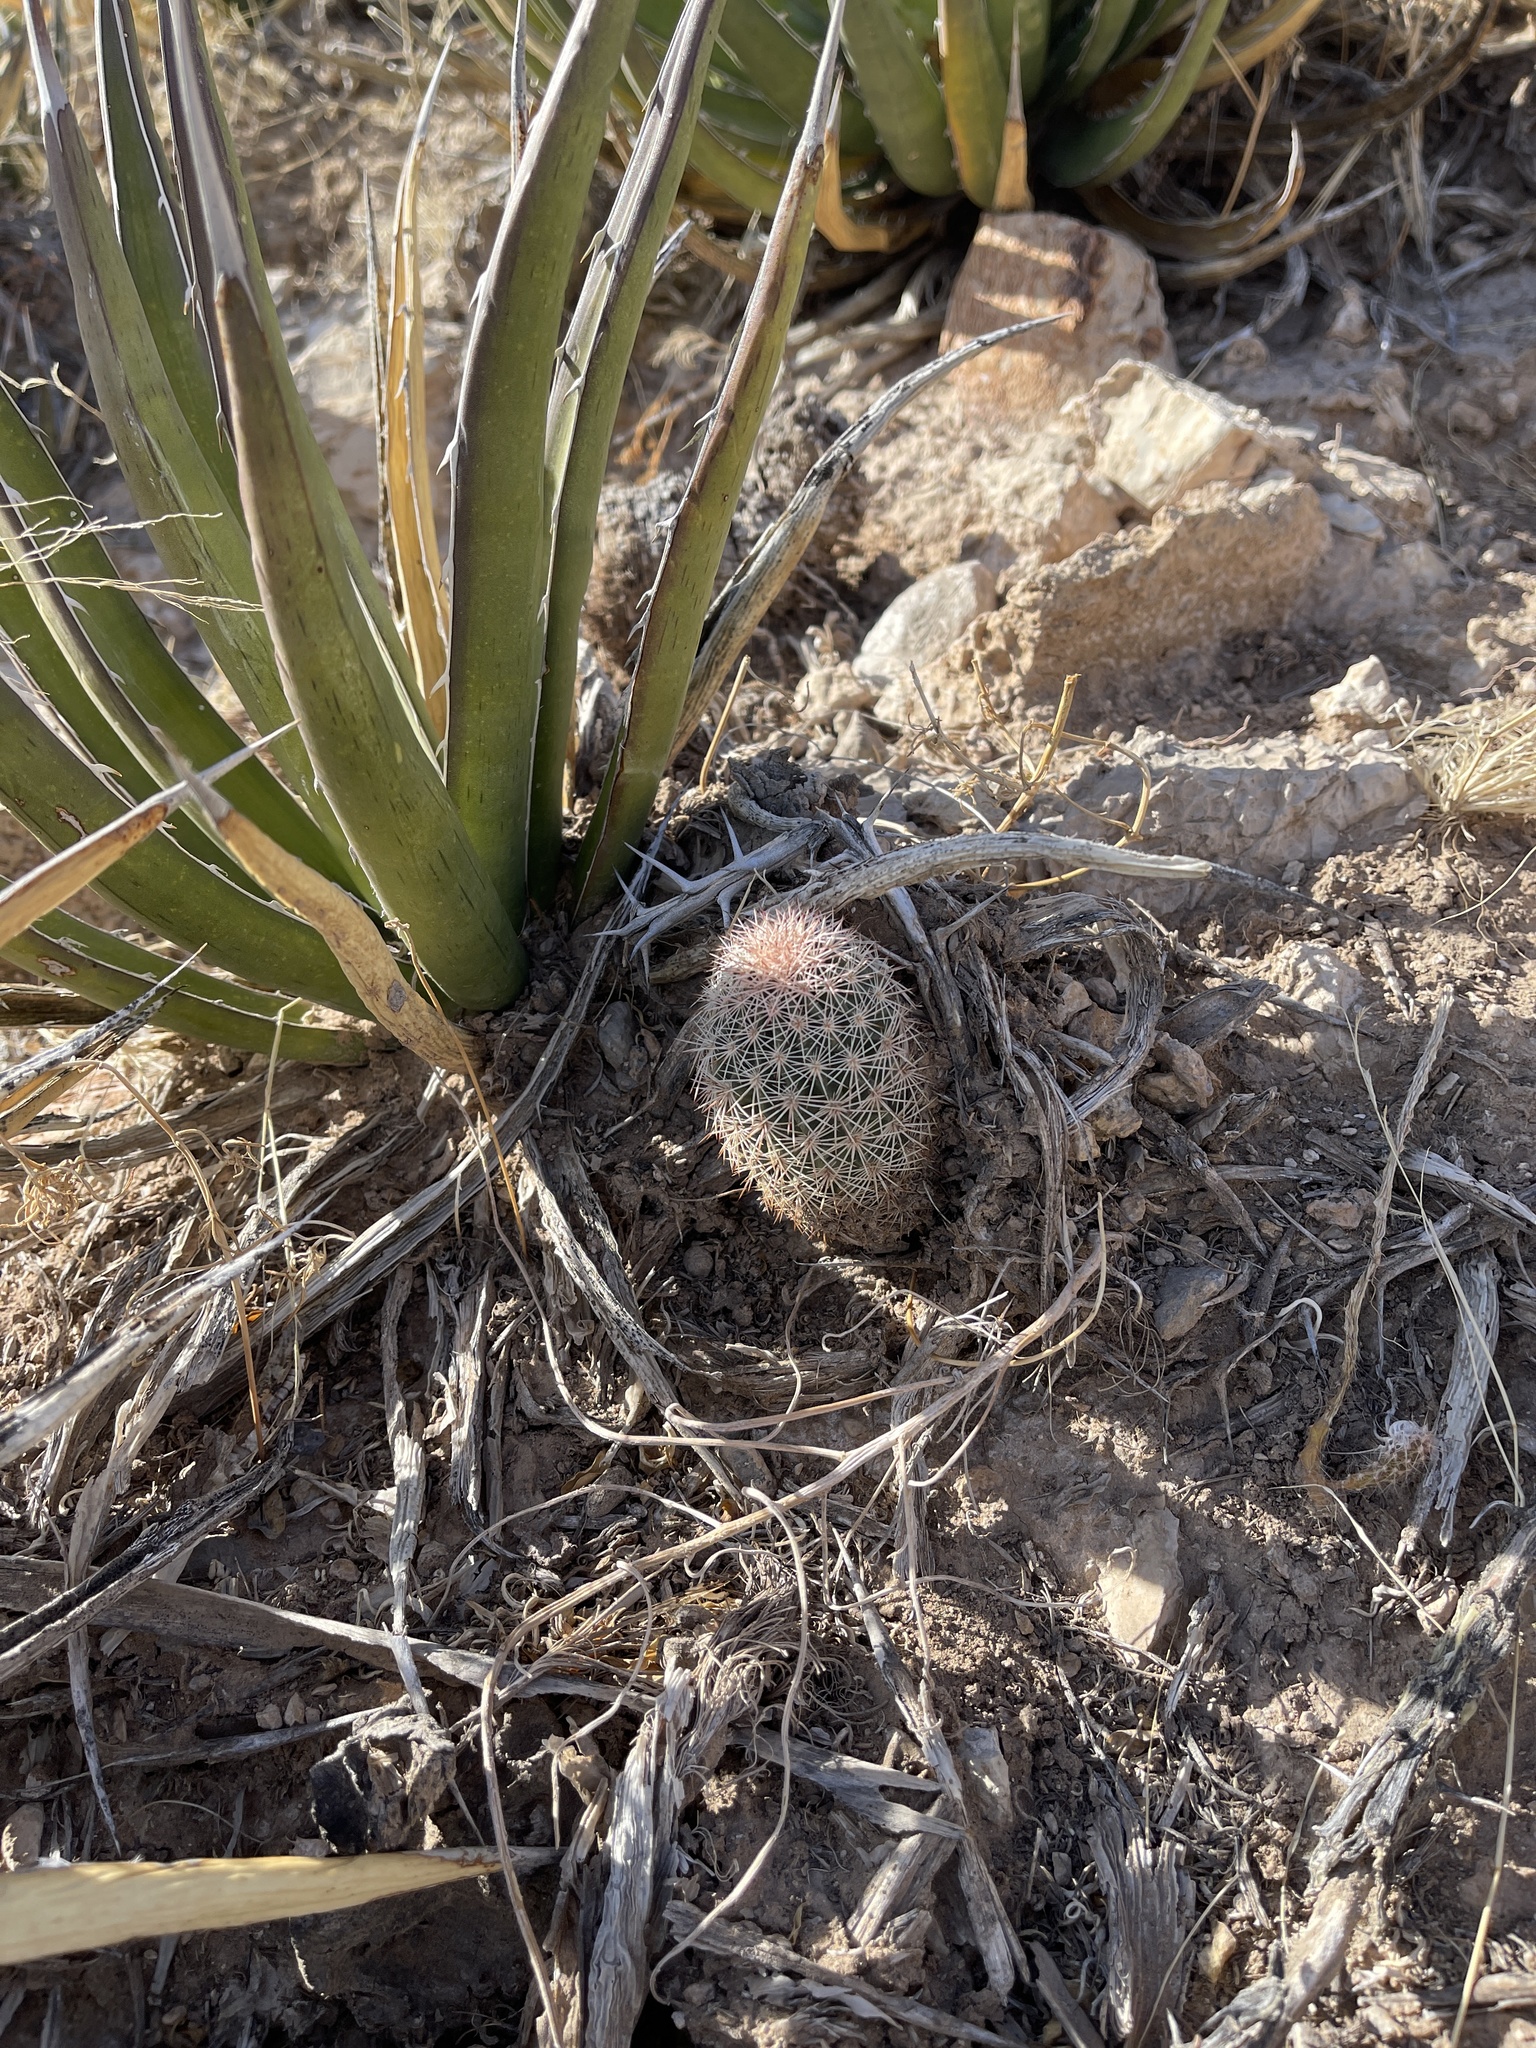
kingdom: Plantae
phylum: Tracheophyta
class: Magnoliopsida
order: Caryophyllales
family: Cactaceae
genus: Echinocereus
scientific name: Echinocereus dasyacanthus
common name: Spiny hedgehog cactus
